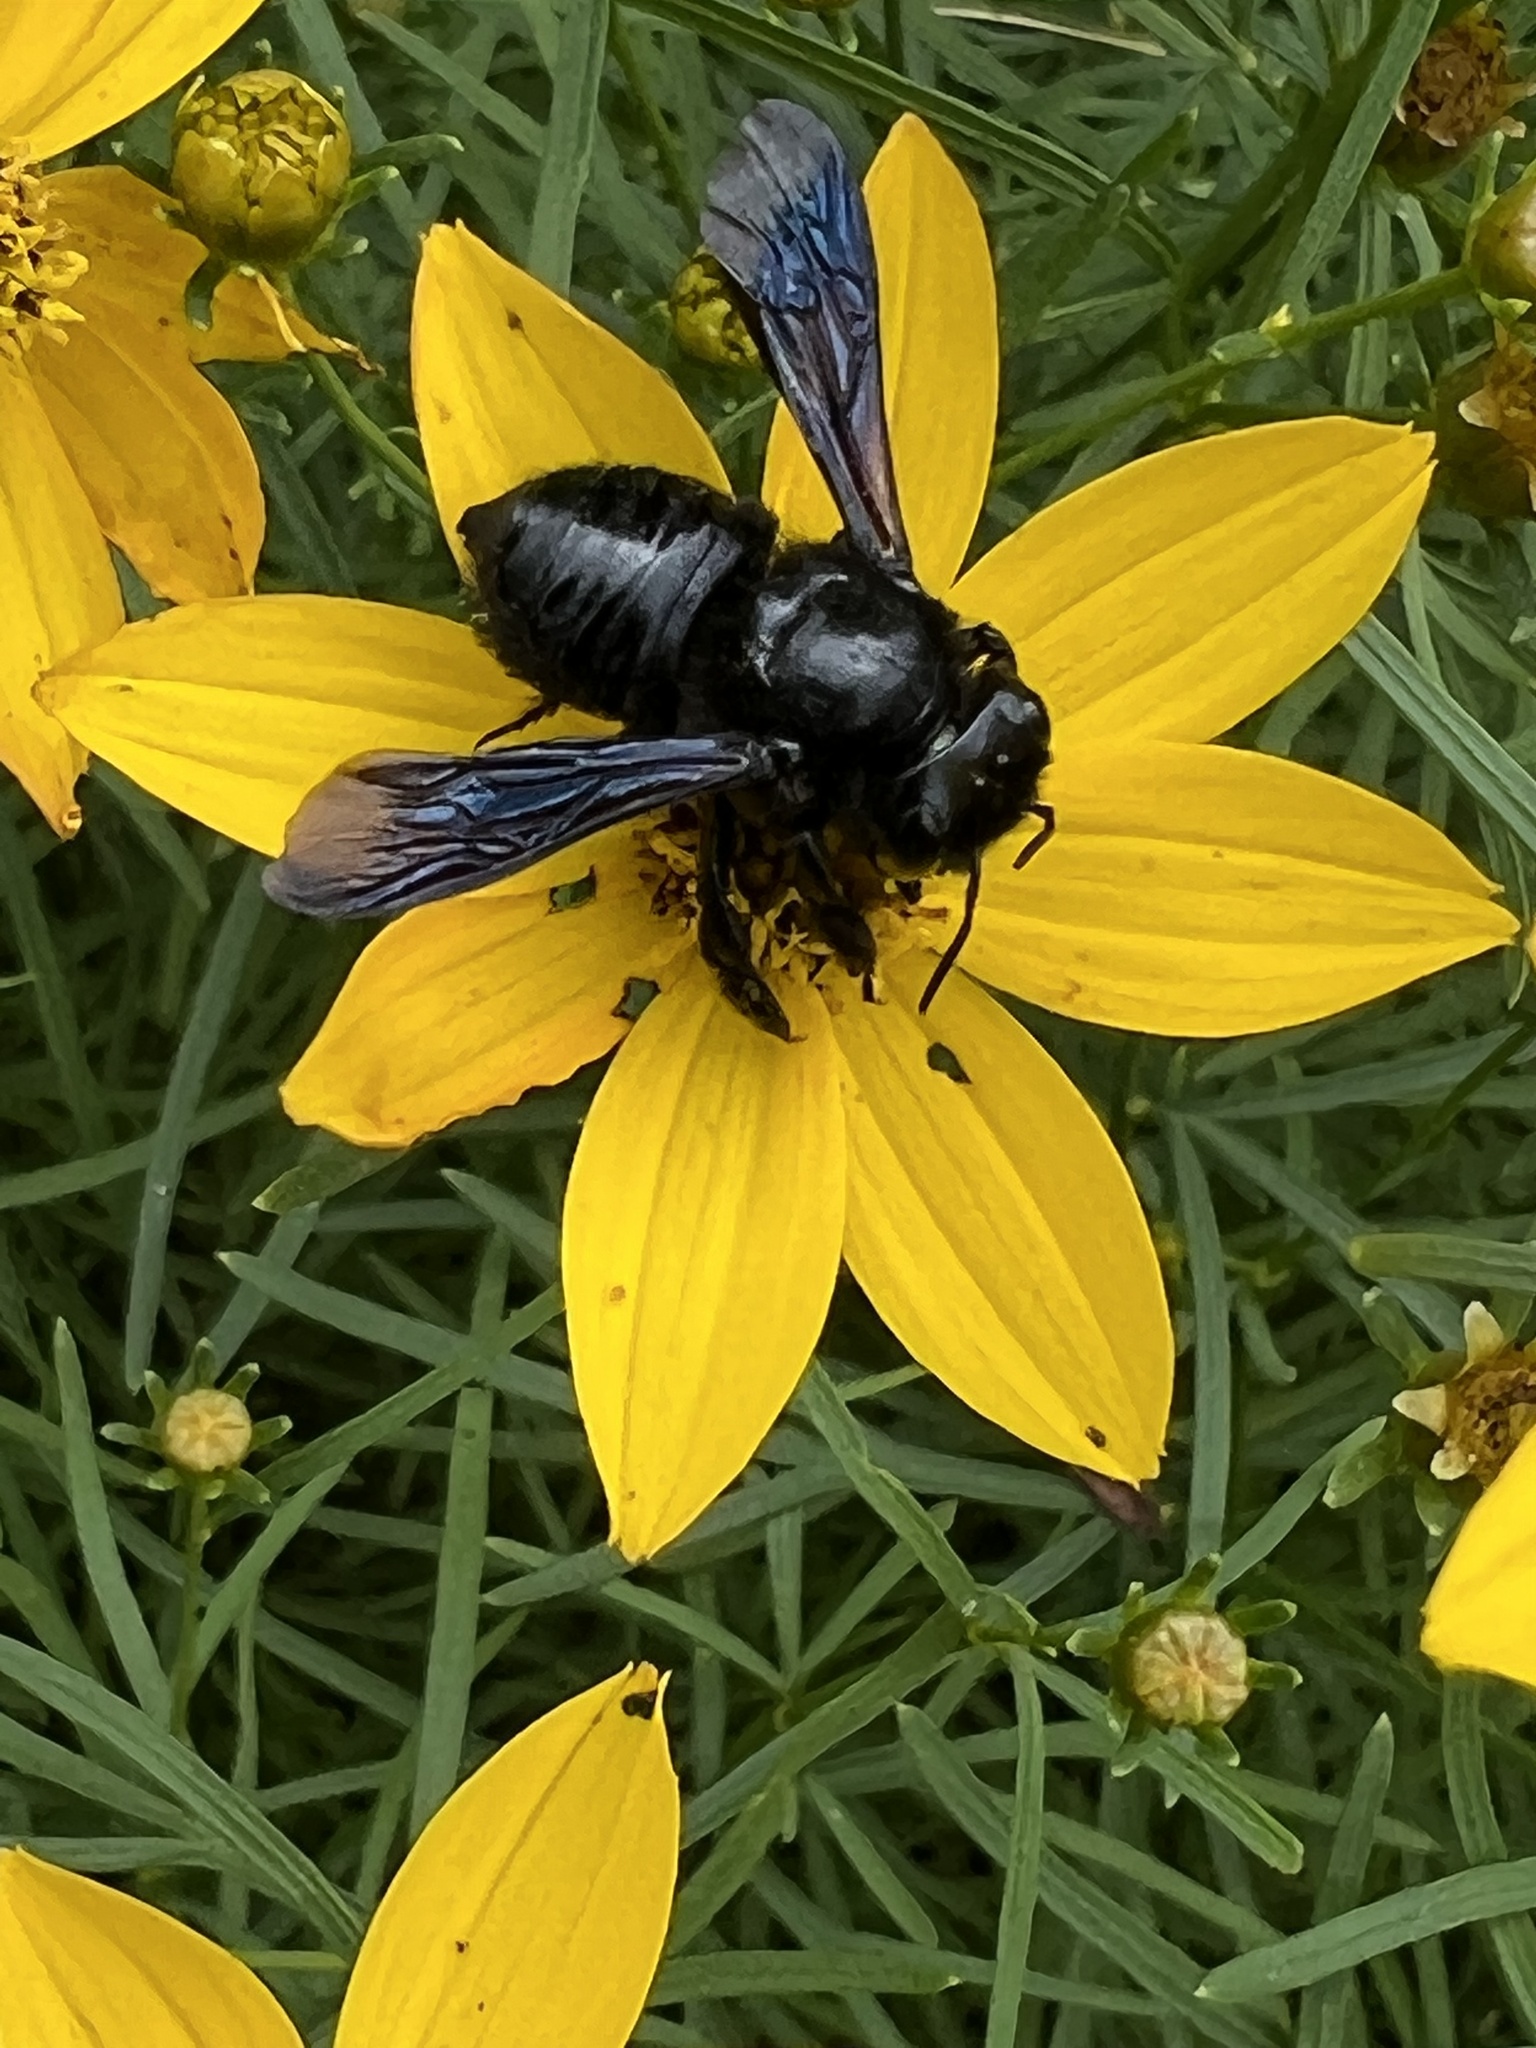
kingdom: Animalia
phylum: Arthropoda
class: Insecta
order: Hymenoptera
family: Megachilidae
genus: Megachile
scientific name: Megachile xylocopoides
